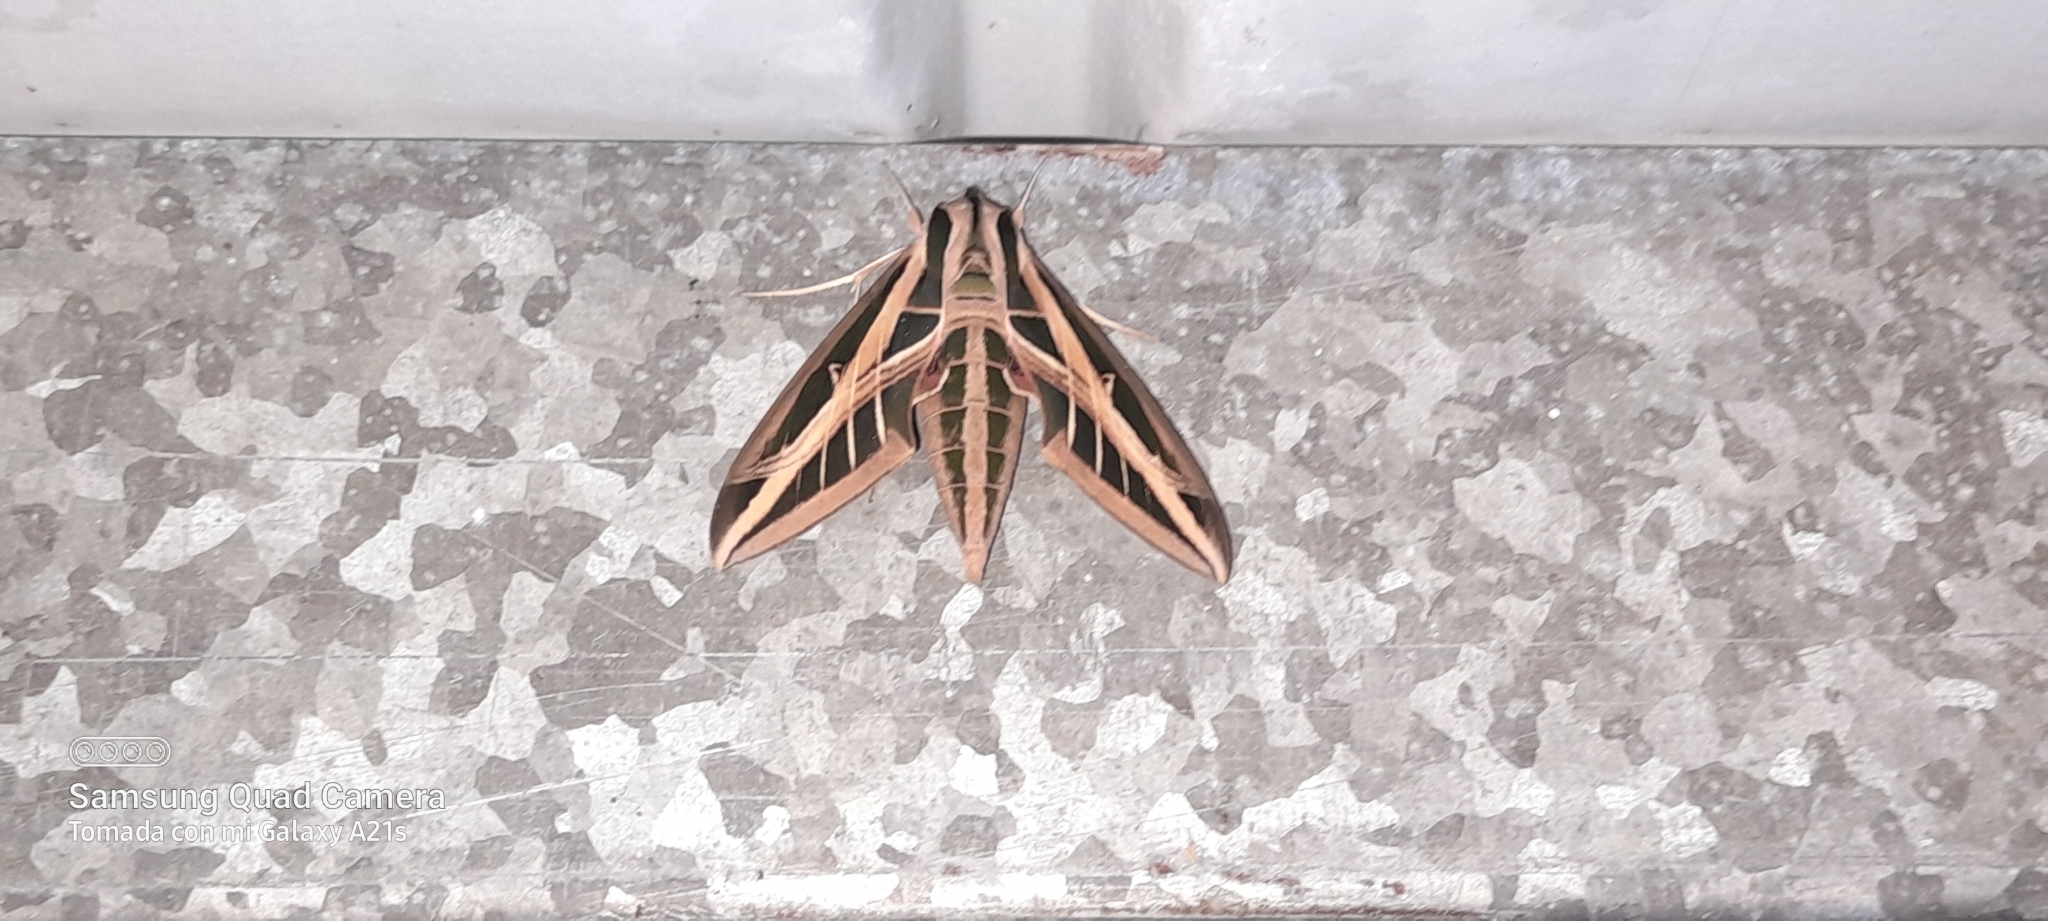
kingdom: Animalia
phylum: Arthropoda
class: Insecta
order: Lepidoptera
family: Sphingidae
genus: Eumorpha
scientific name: Eumorpha fasciatus
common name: Banded sphinx
